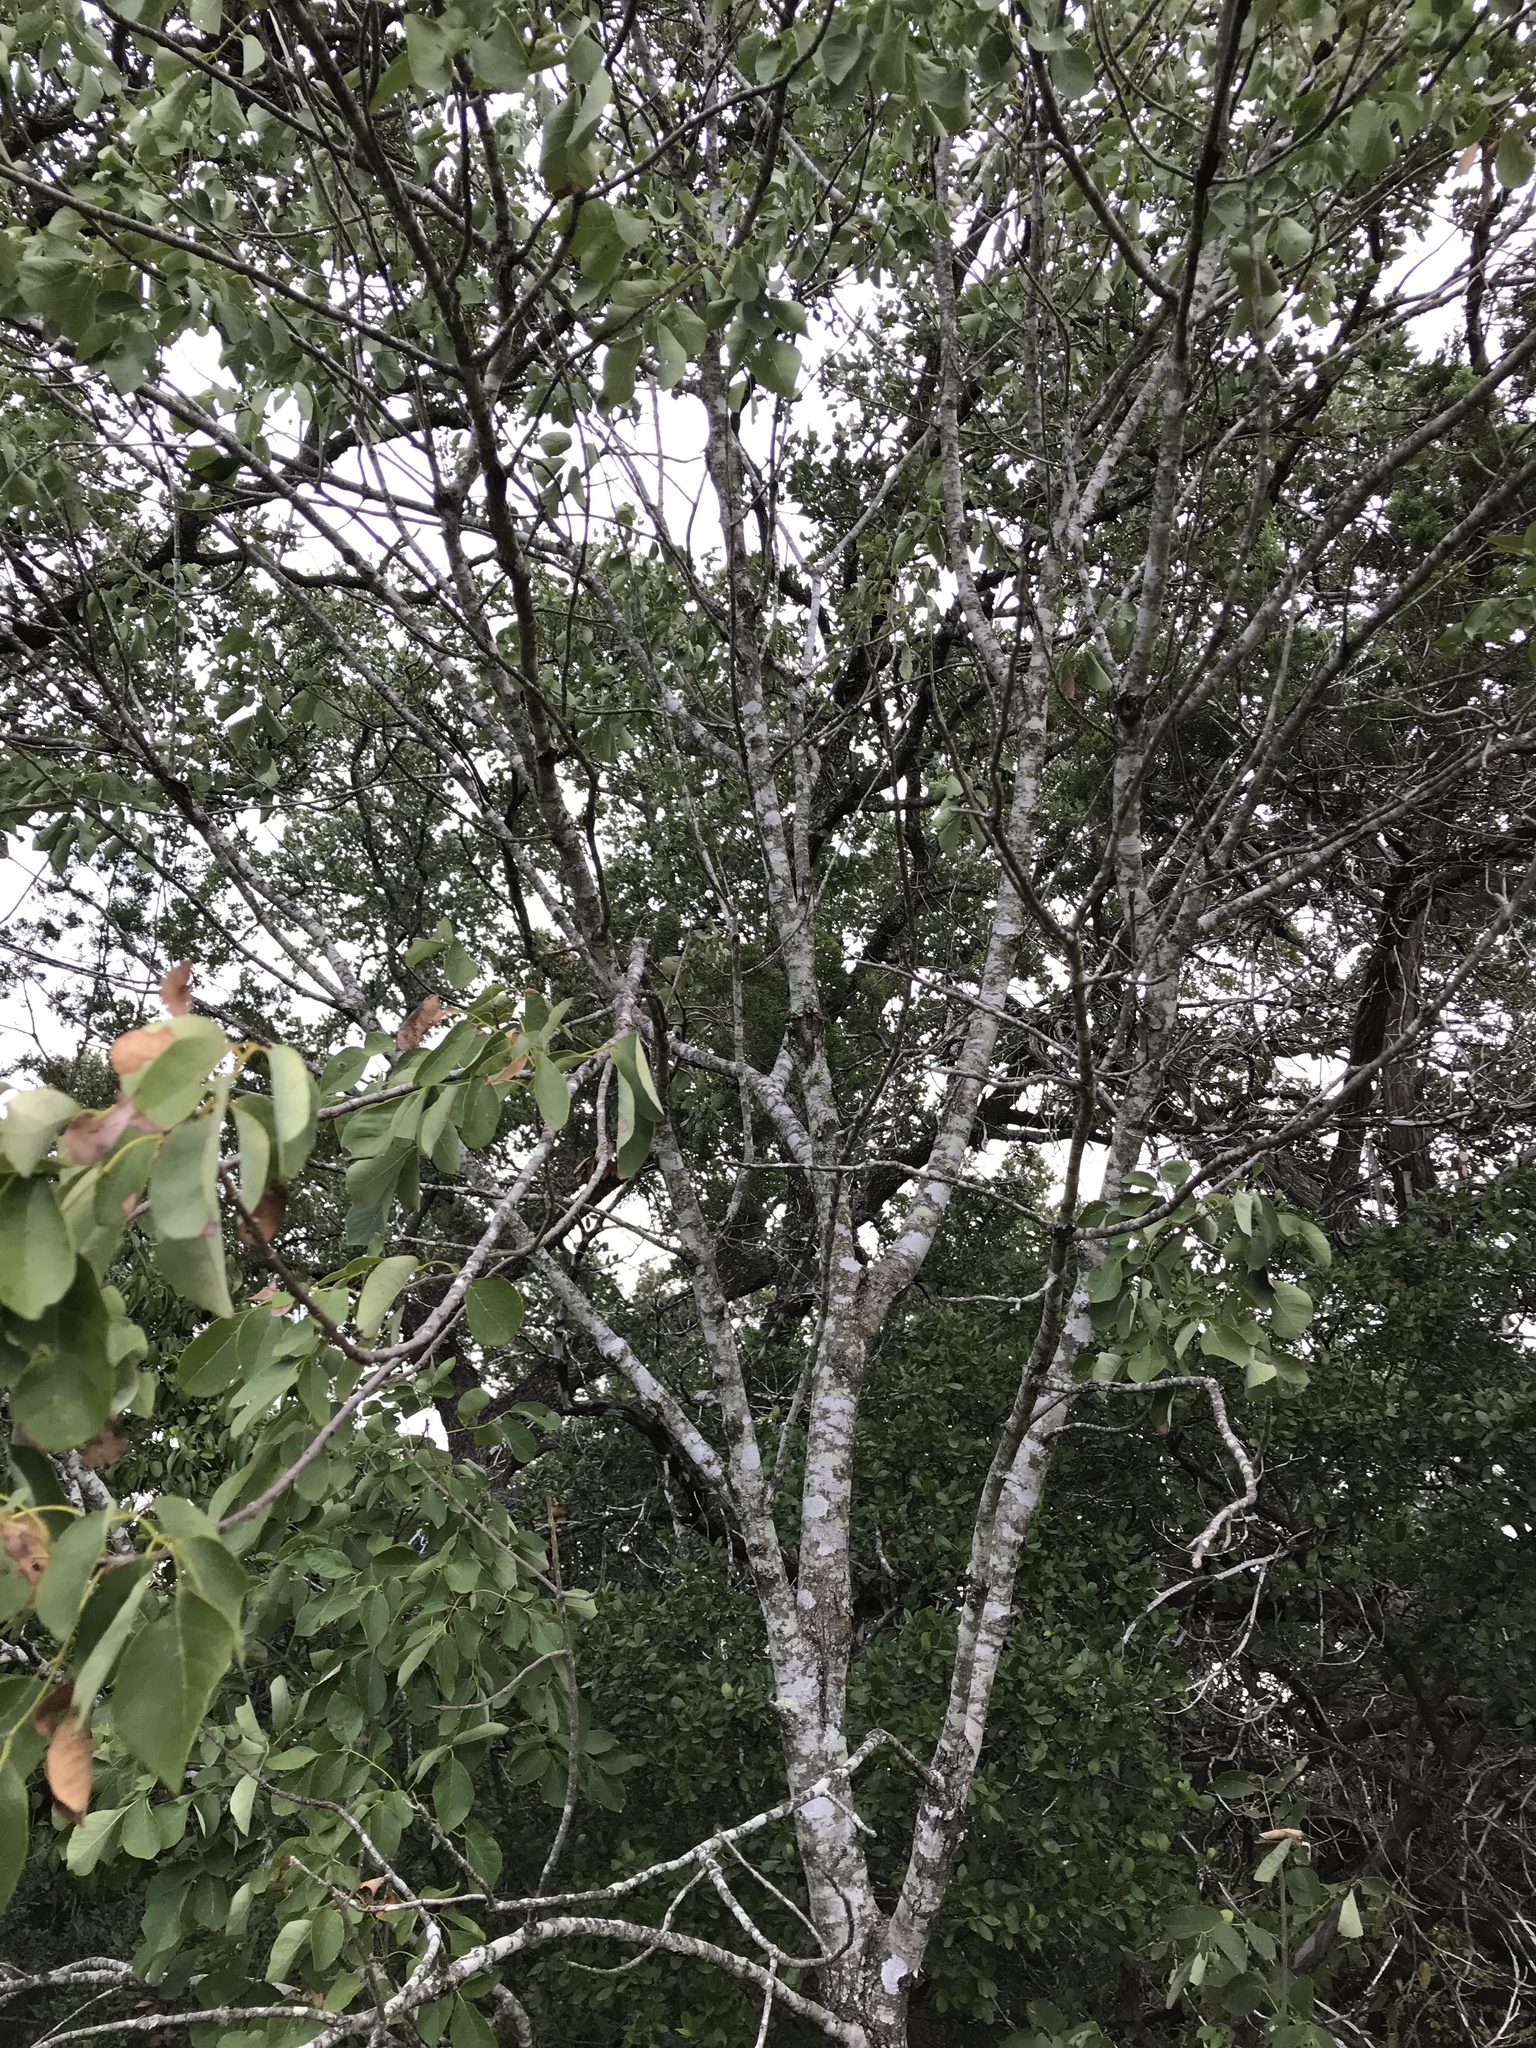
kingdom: Plantae
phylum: Tracheophyta
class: Magnoliopsida
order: Lamiales
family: Oleaceae
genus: Fraxinus
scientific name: Fraxinus albicans
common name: Texas ash
